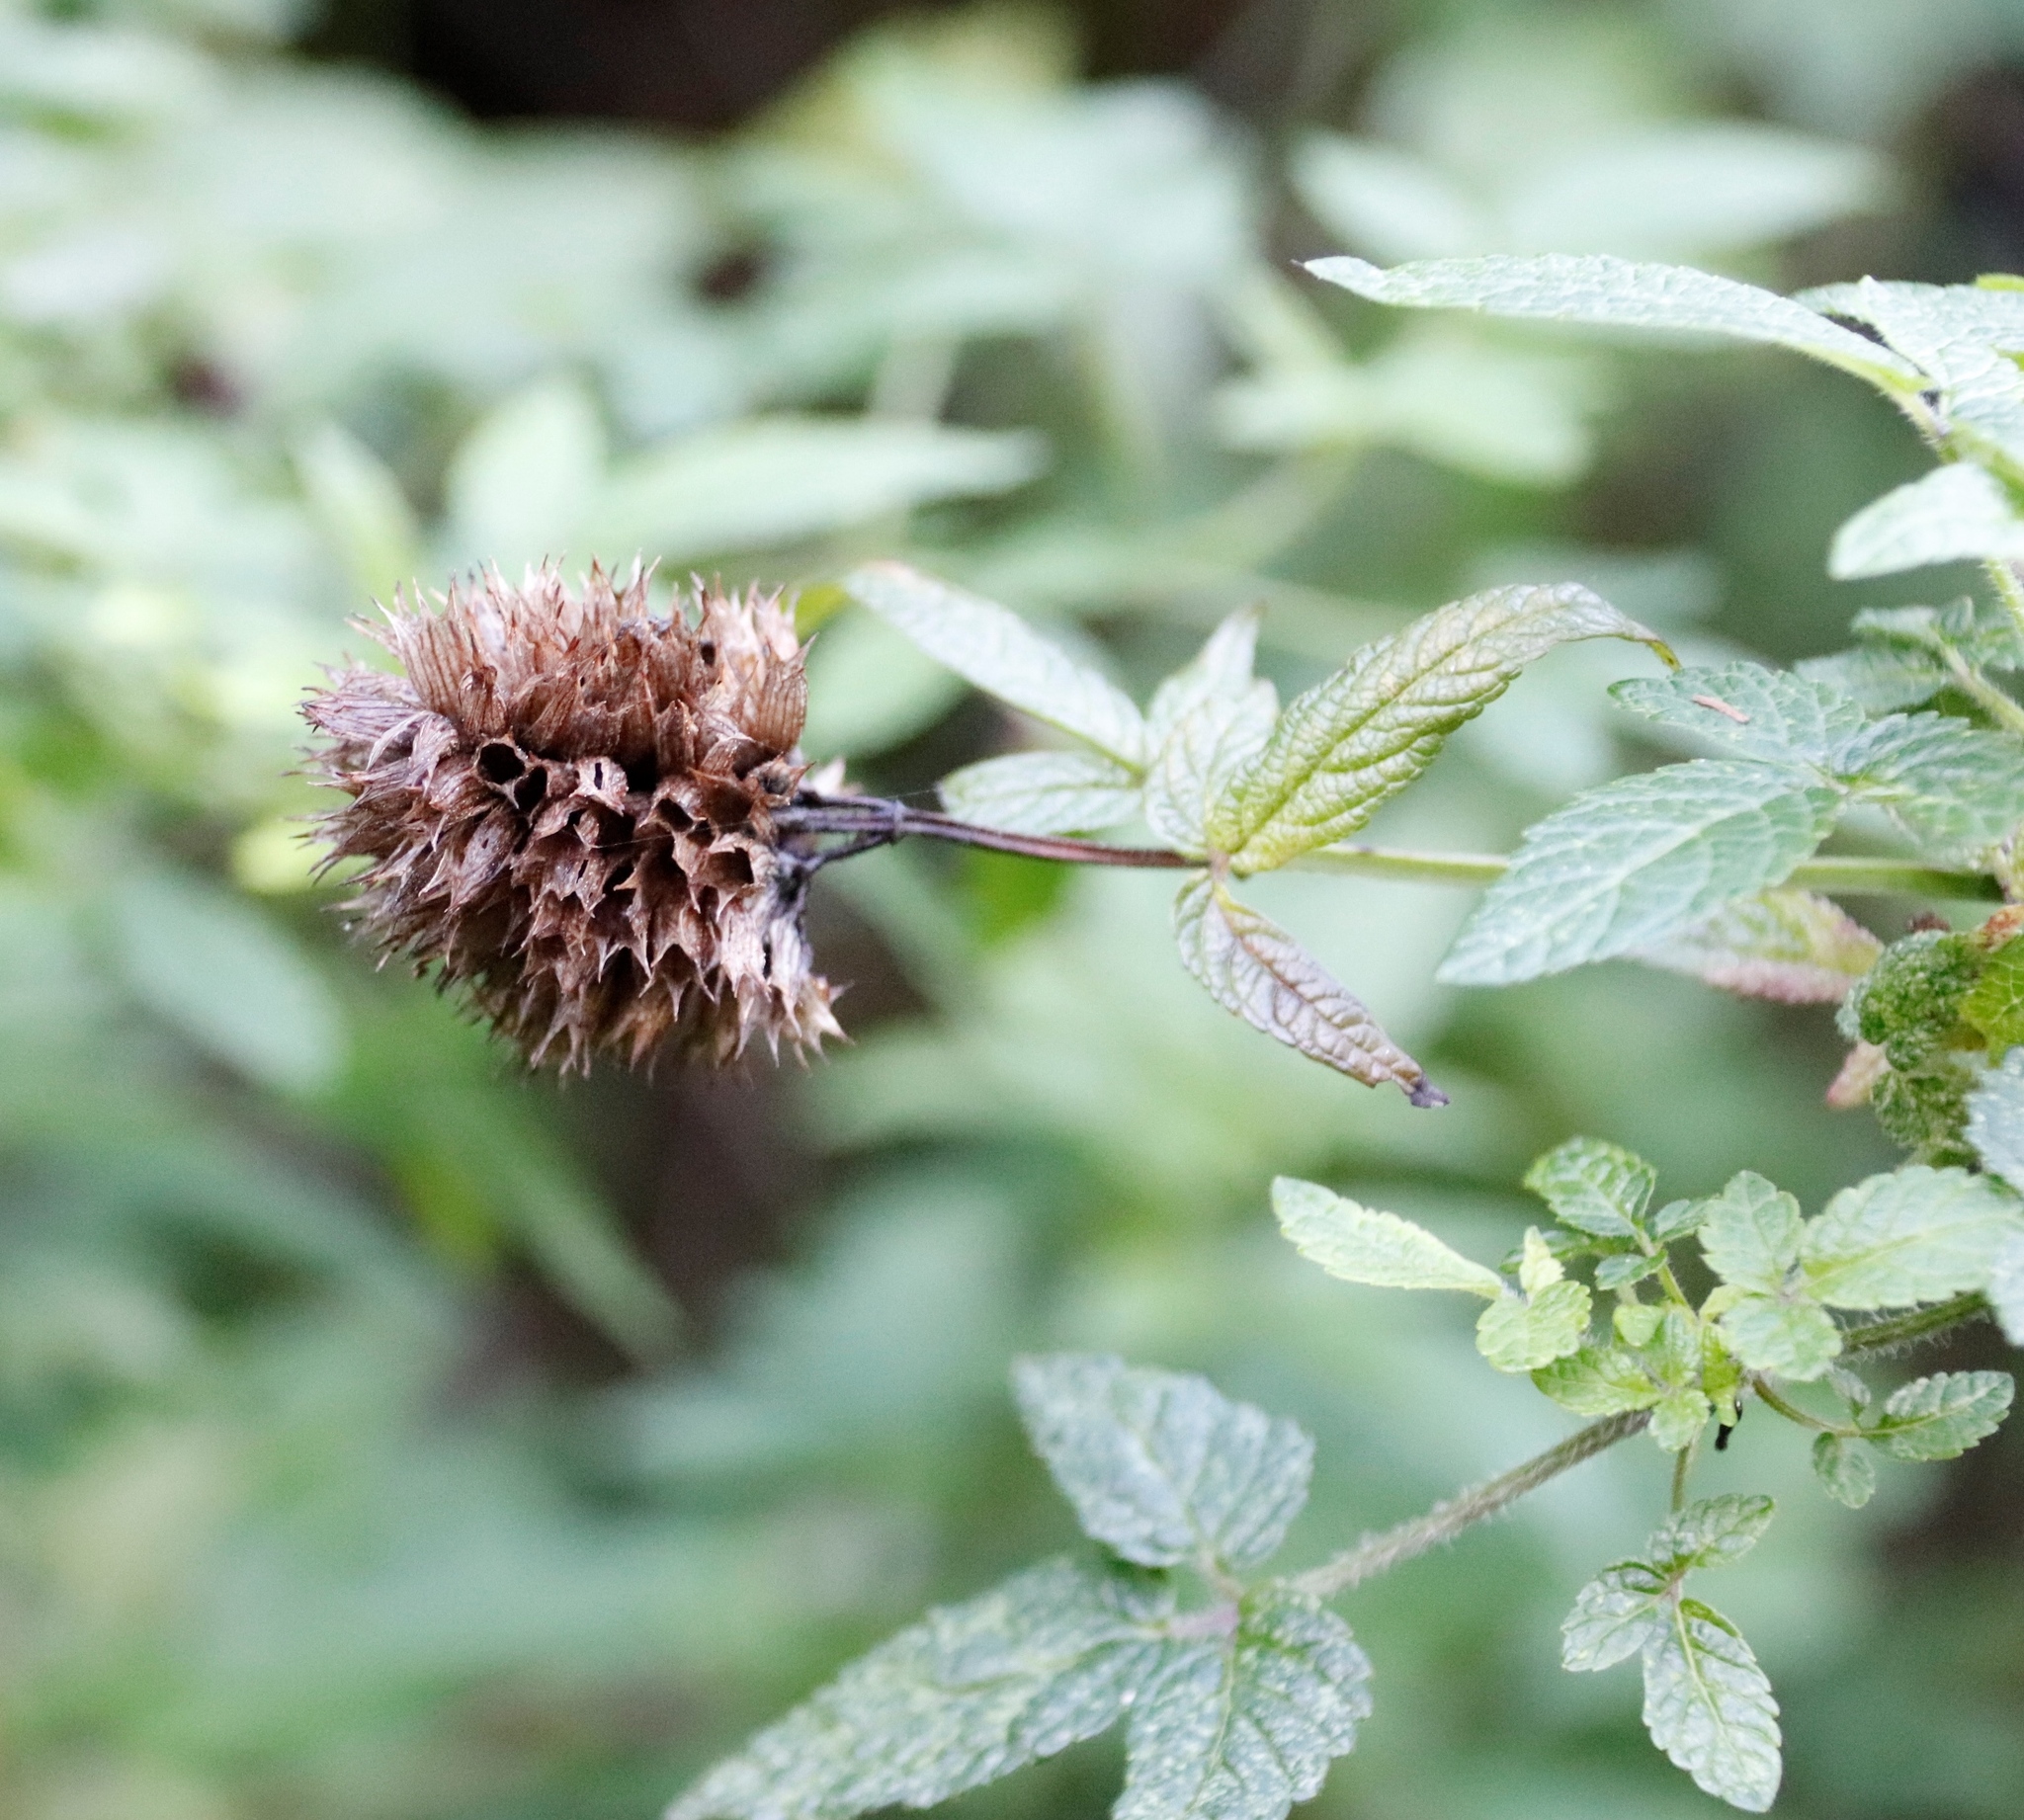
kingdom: Plantae
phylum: Tracheophyta
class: Magnoliopsida
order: Lamiales
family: Lamiaceae
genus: Cedronella
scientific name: Cedronella canariensis
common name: Canary islands balm
